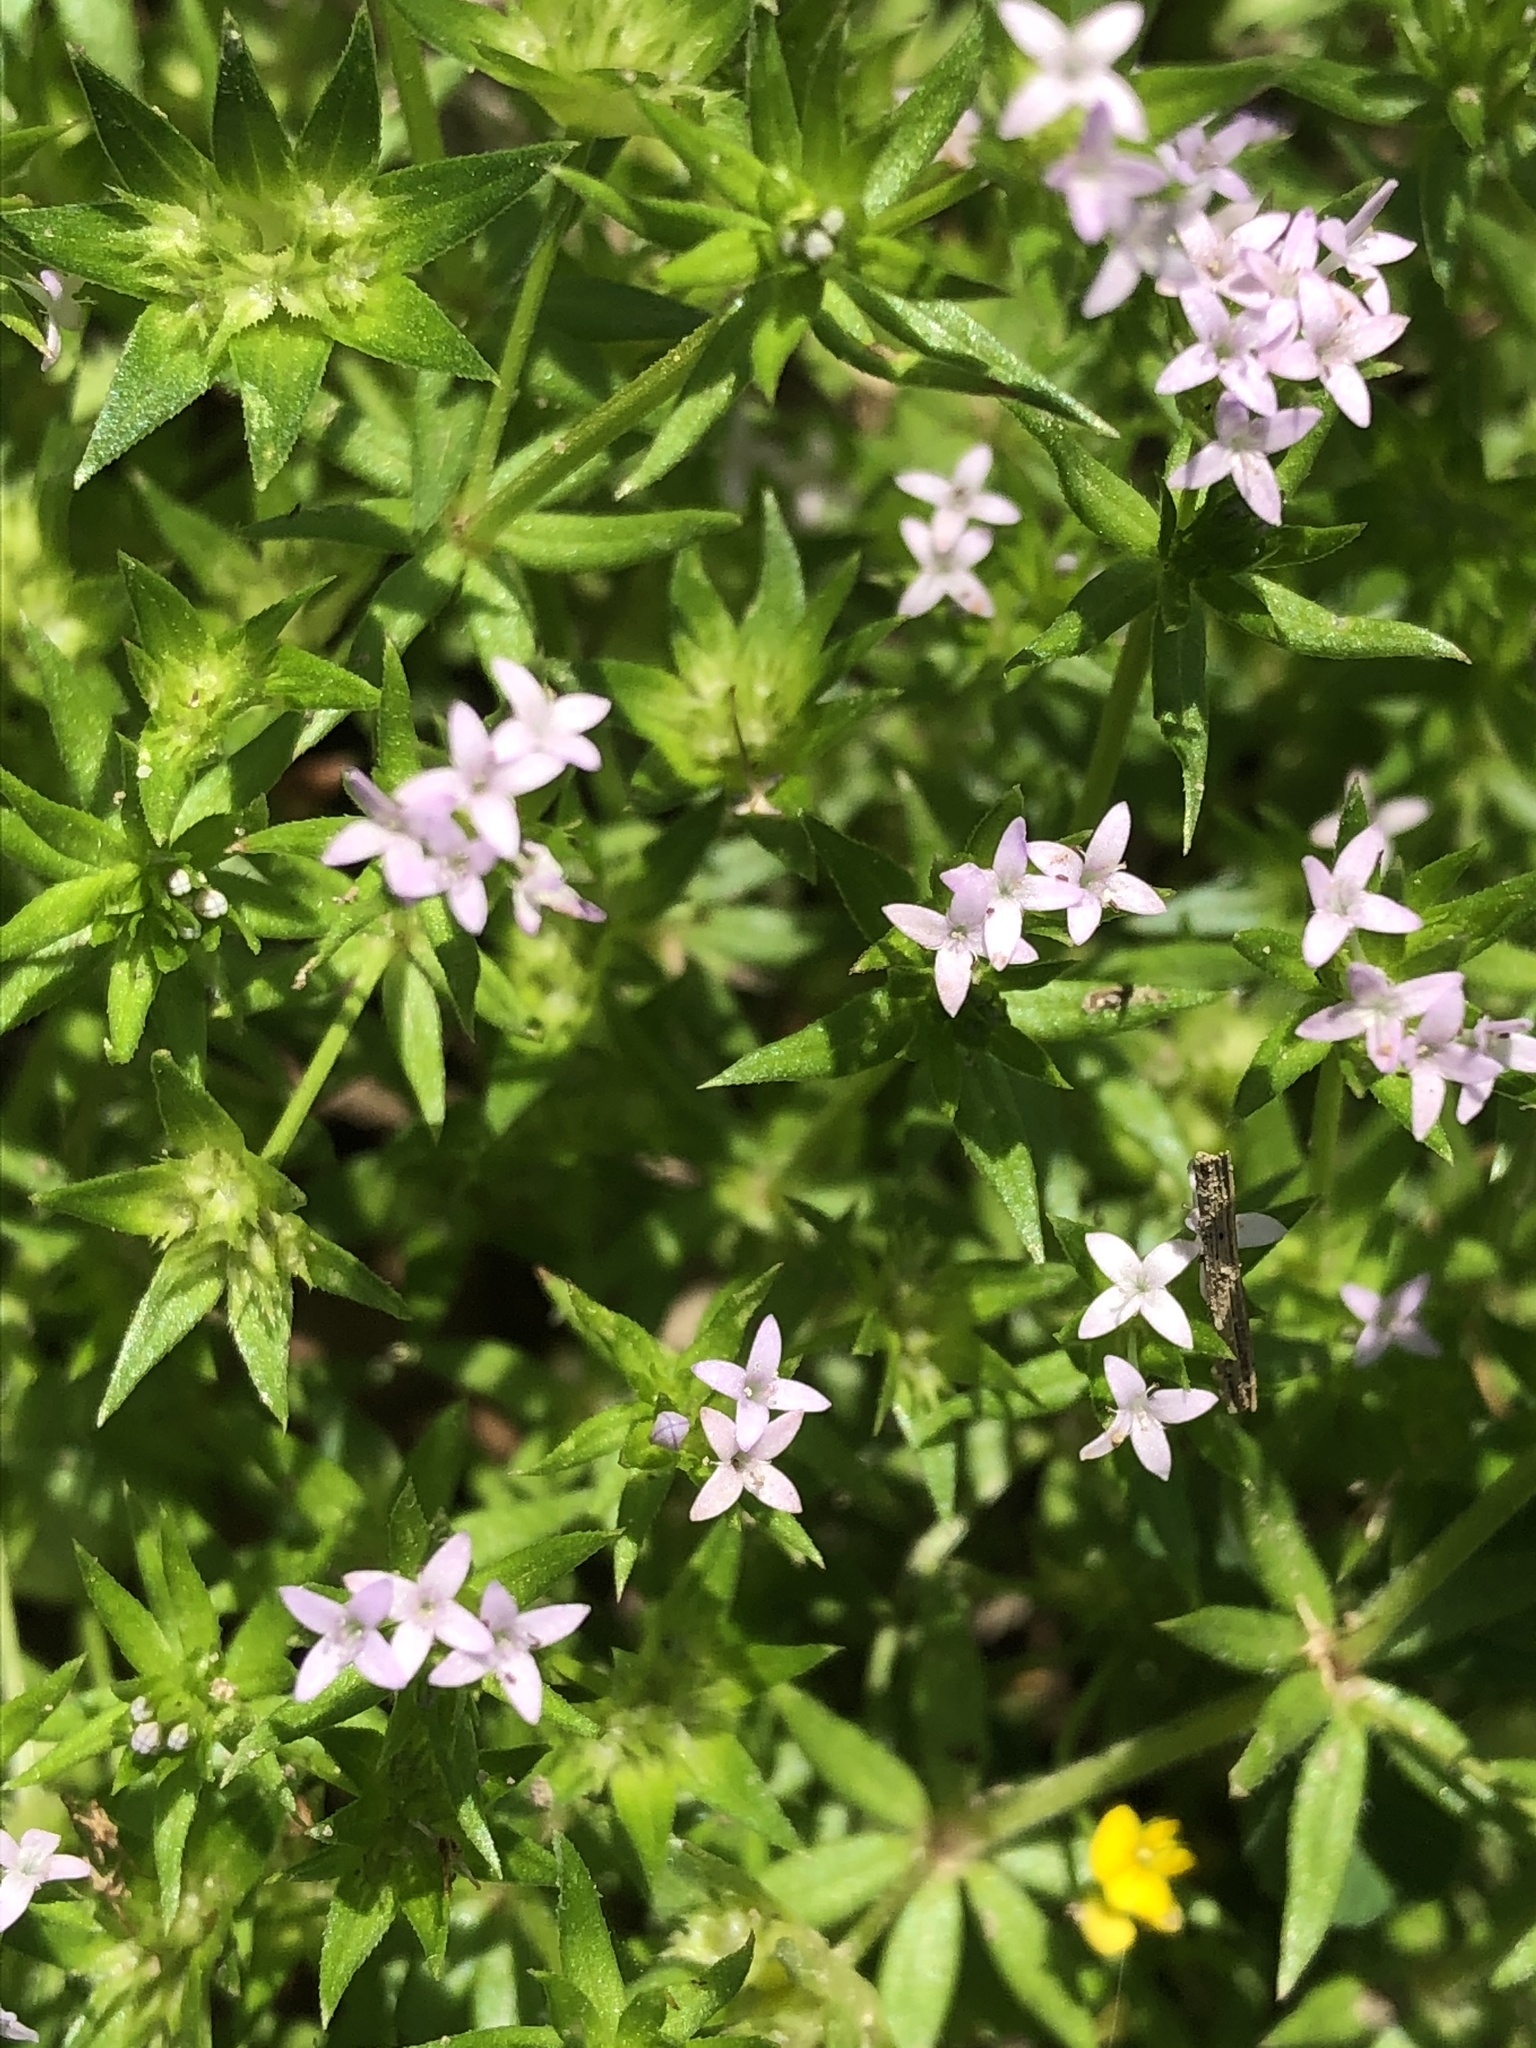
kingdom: Plantae
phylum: Tracheophyta
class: Magnoliopsida
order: Gentianales
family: Rubiaceae
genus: Sherardia
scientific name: Sherardia arvensis
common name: Field madder
